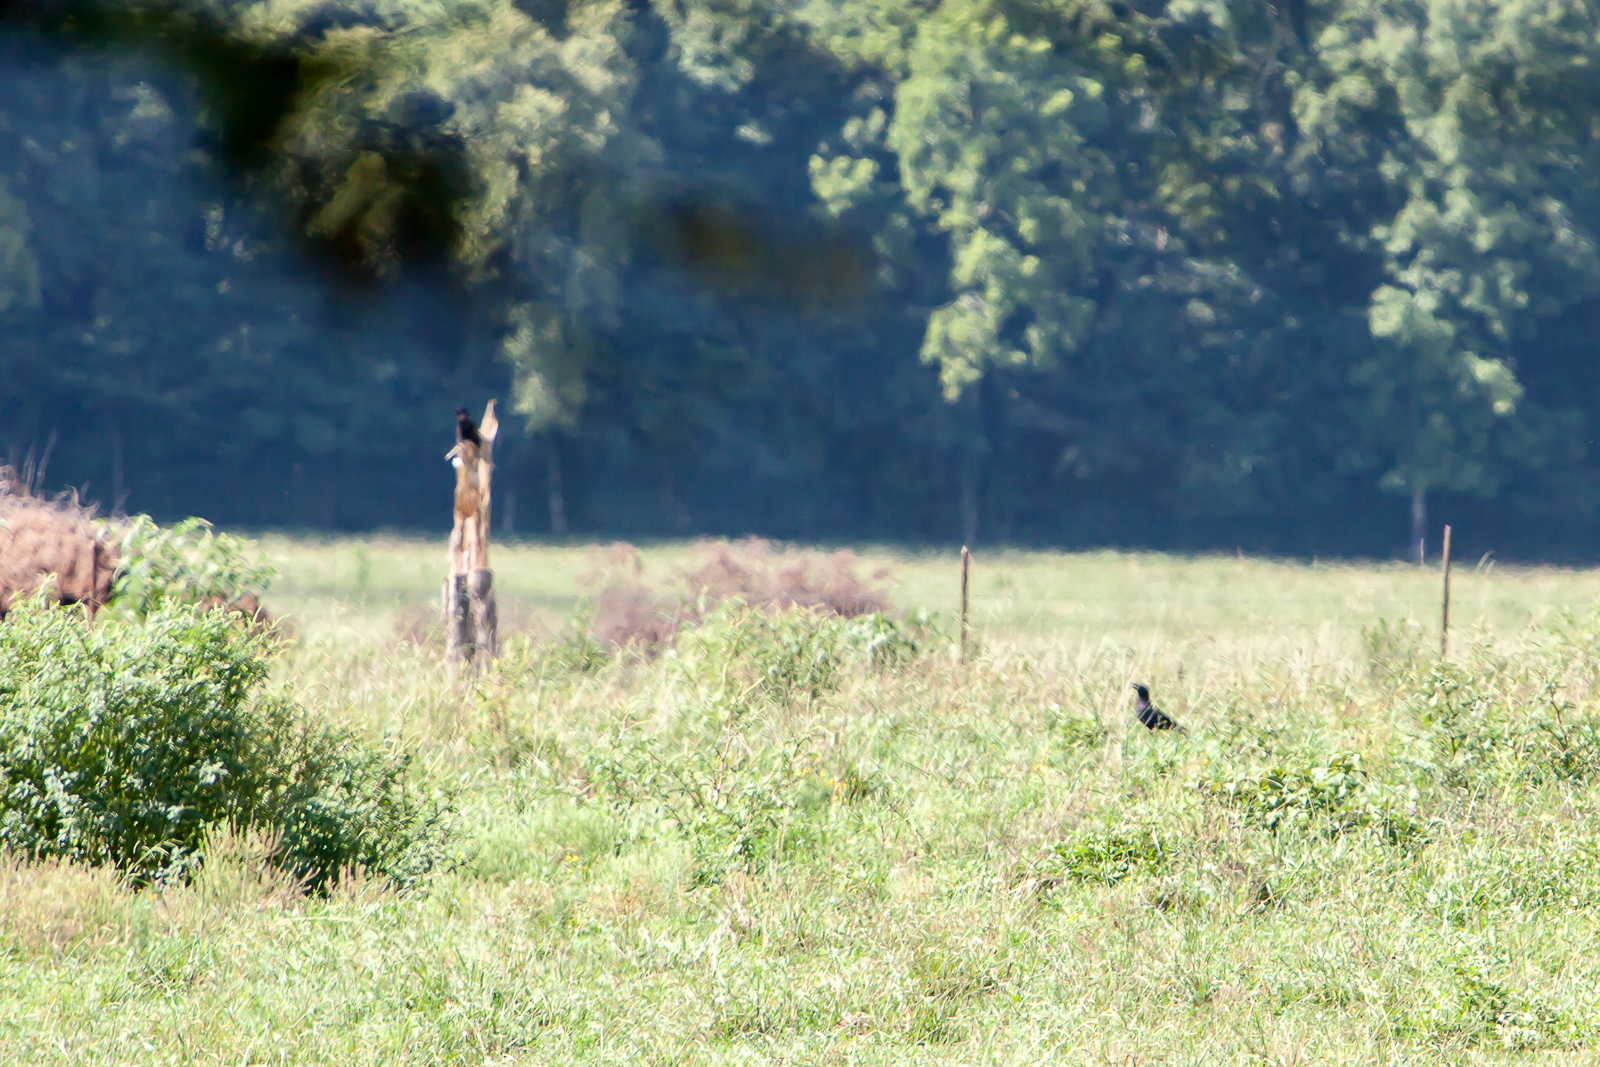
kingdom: Animalia
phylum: Chordata
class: Aves
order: Passeriformes
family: Corvidae
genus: Corvus
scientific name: Corvus brachyrhynchos
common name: American crow
